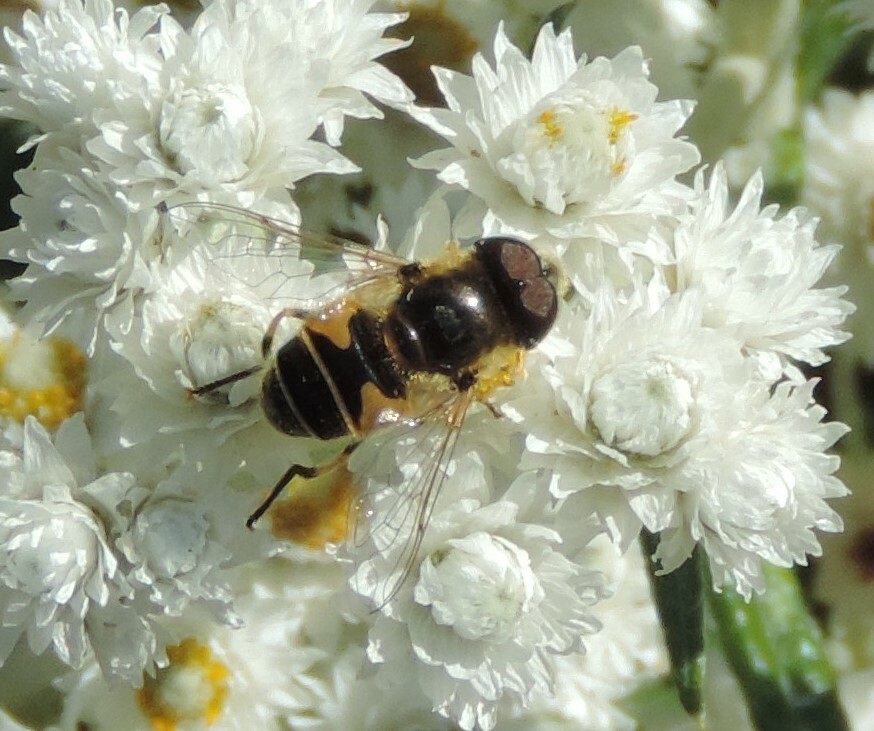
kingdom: Animalia
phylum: Arthropoda
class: Insecta
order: Diptera
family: Syrphidae
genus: Eristalis
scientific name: Eristalis hirta
